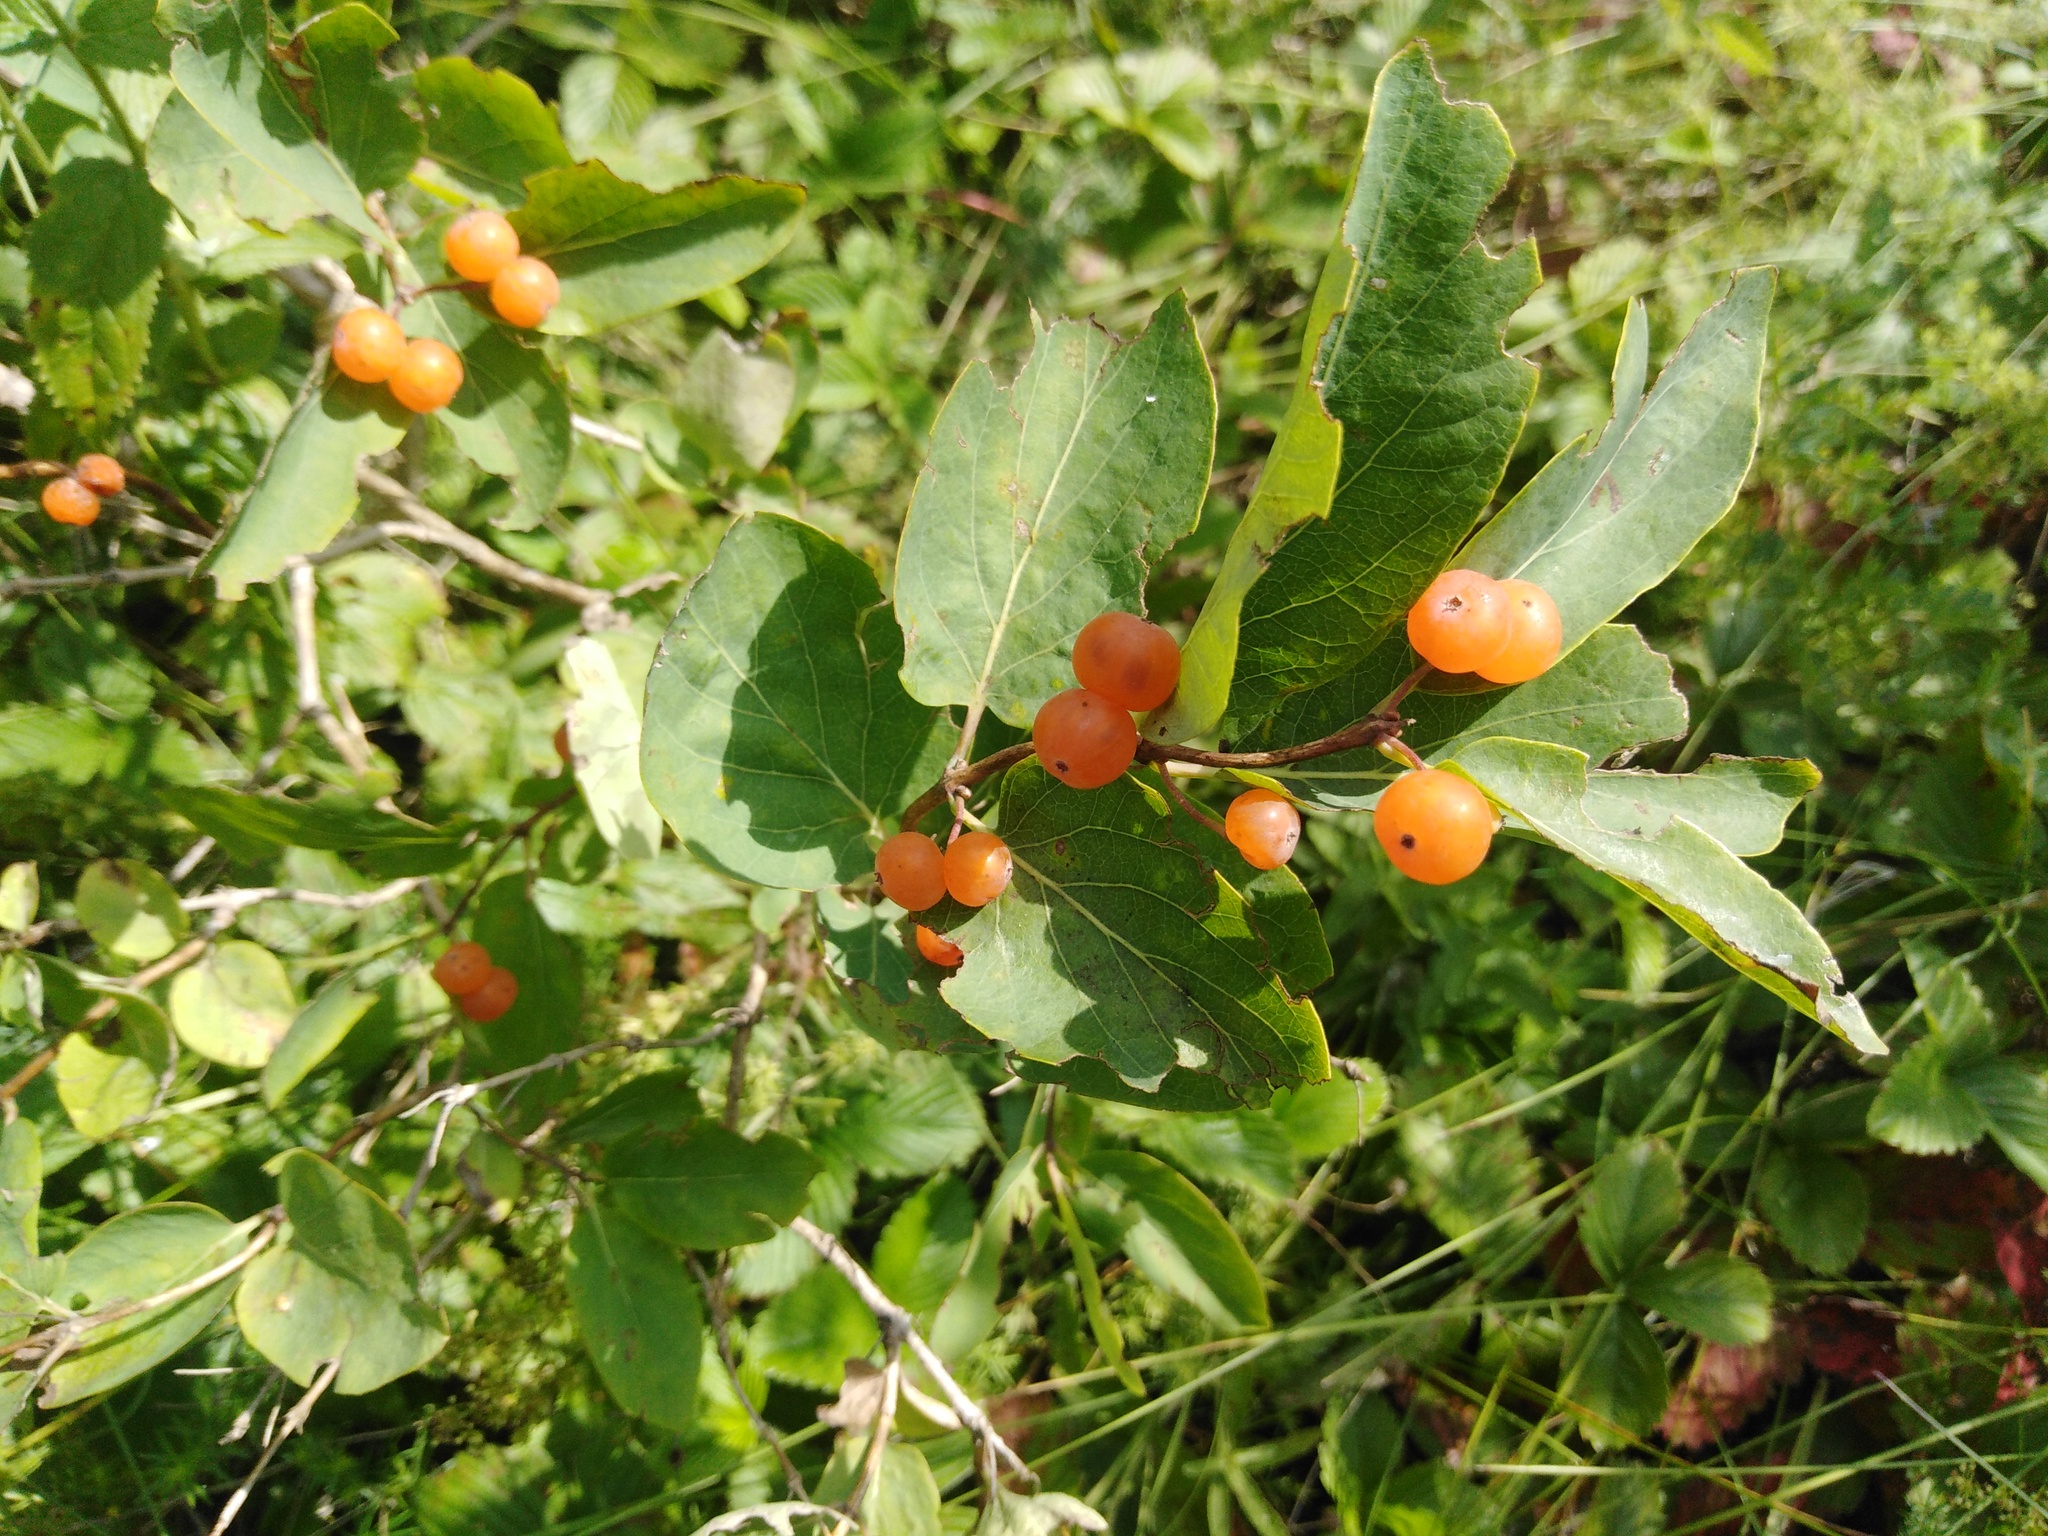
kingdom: Plantae
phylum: Tracheophyta
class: Magnoliopsida
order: Dipsacales
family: Caprifoliaceae
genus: Lonicera
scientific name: Lonicera tatarica
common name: Tatarian honeysuckle
